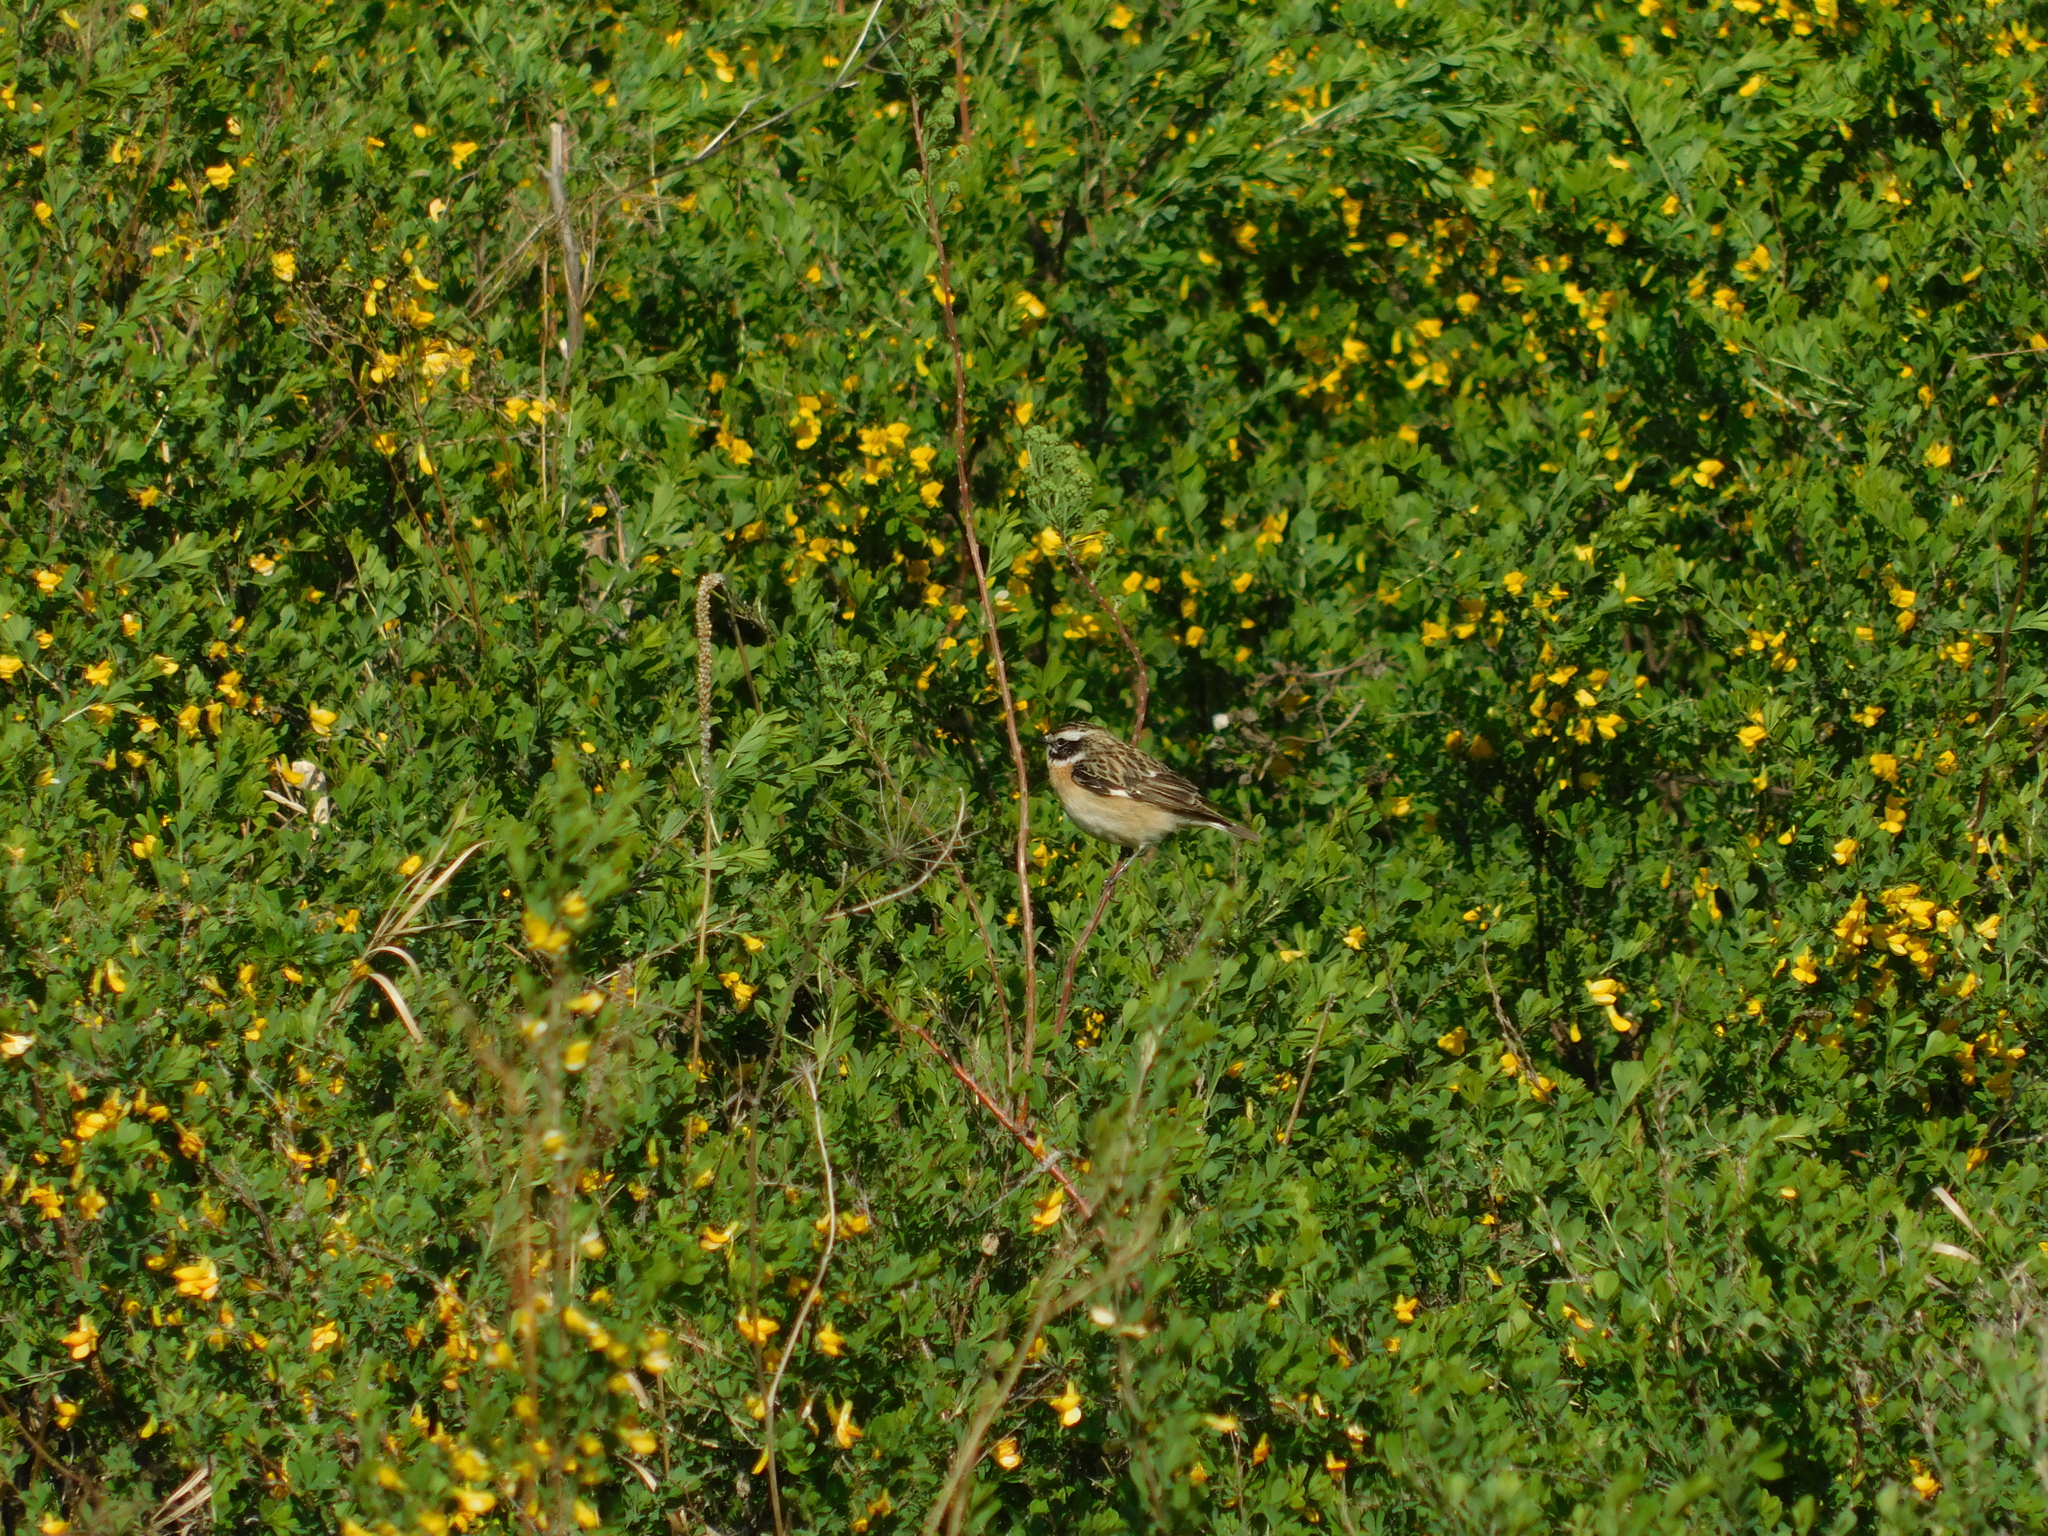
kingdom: Animalia
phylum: Chordata
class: Aves
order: Passeriformes
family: Muscicapidae
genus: Saxicola
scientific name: Saxicola rubetra
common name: Whinchat
